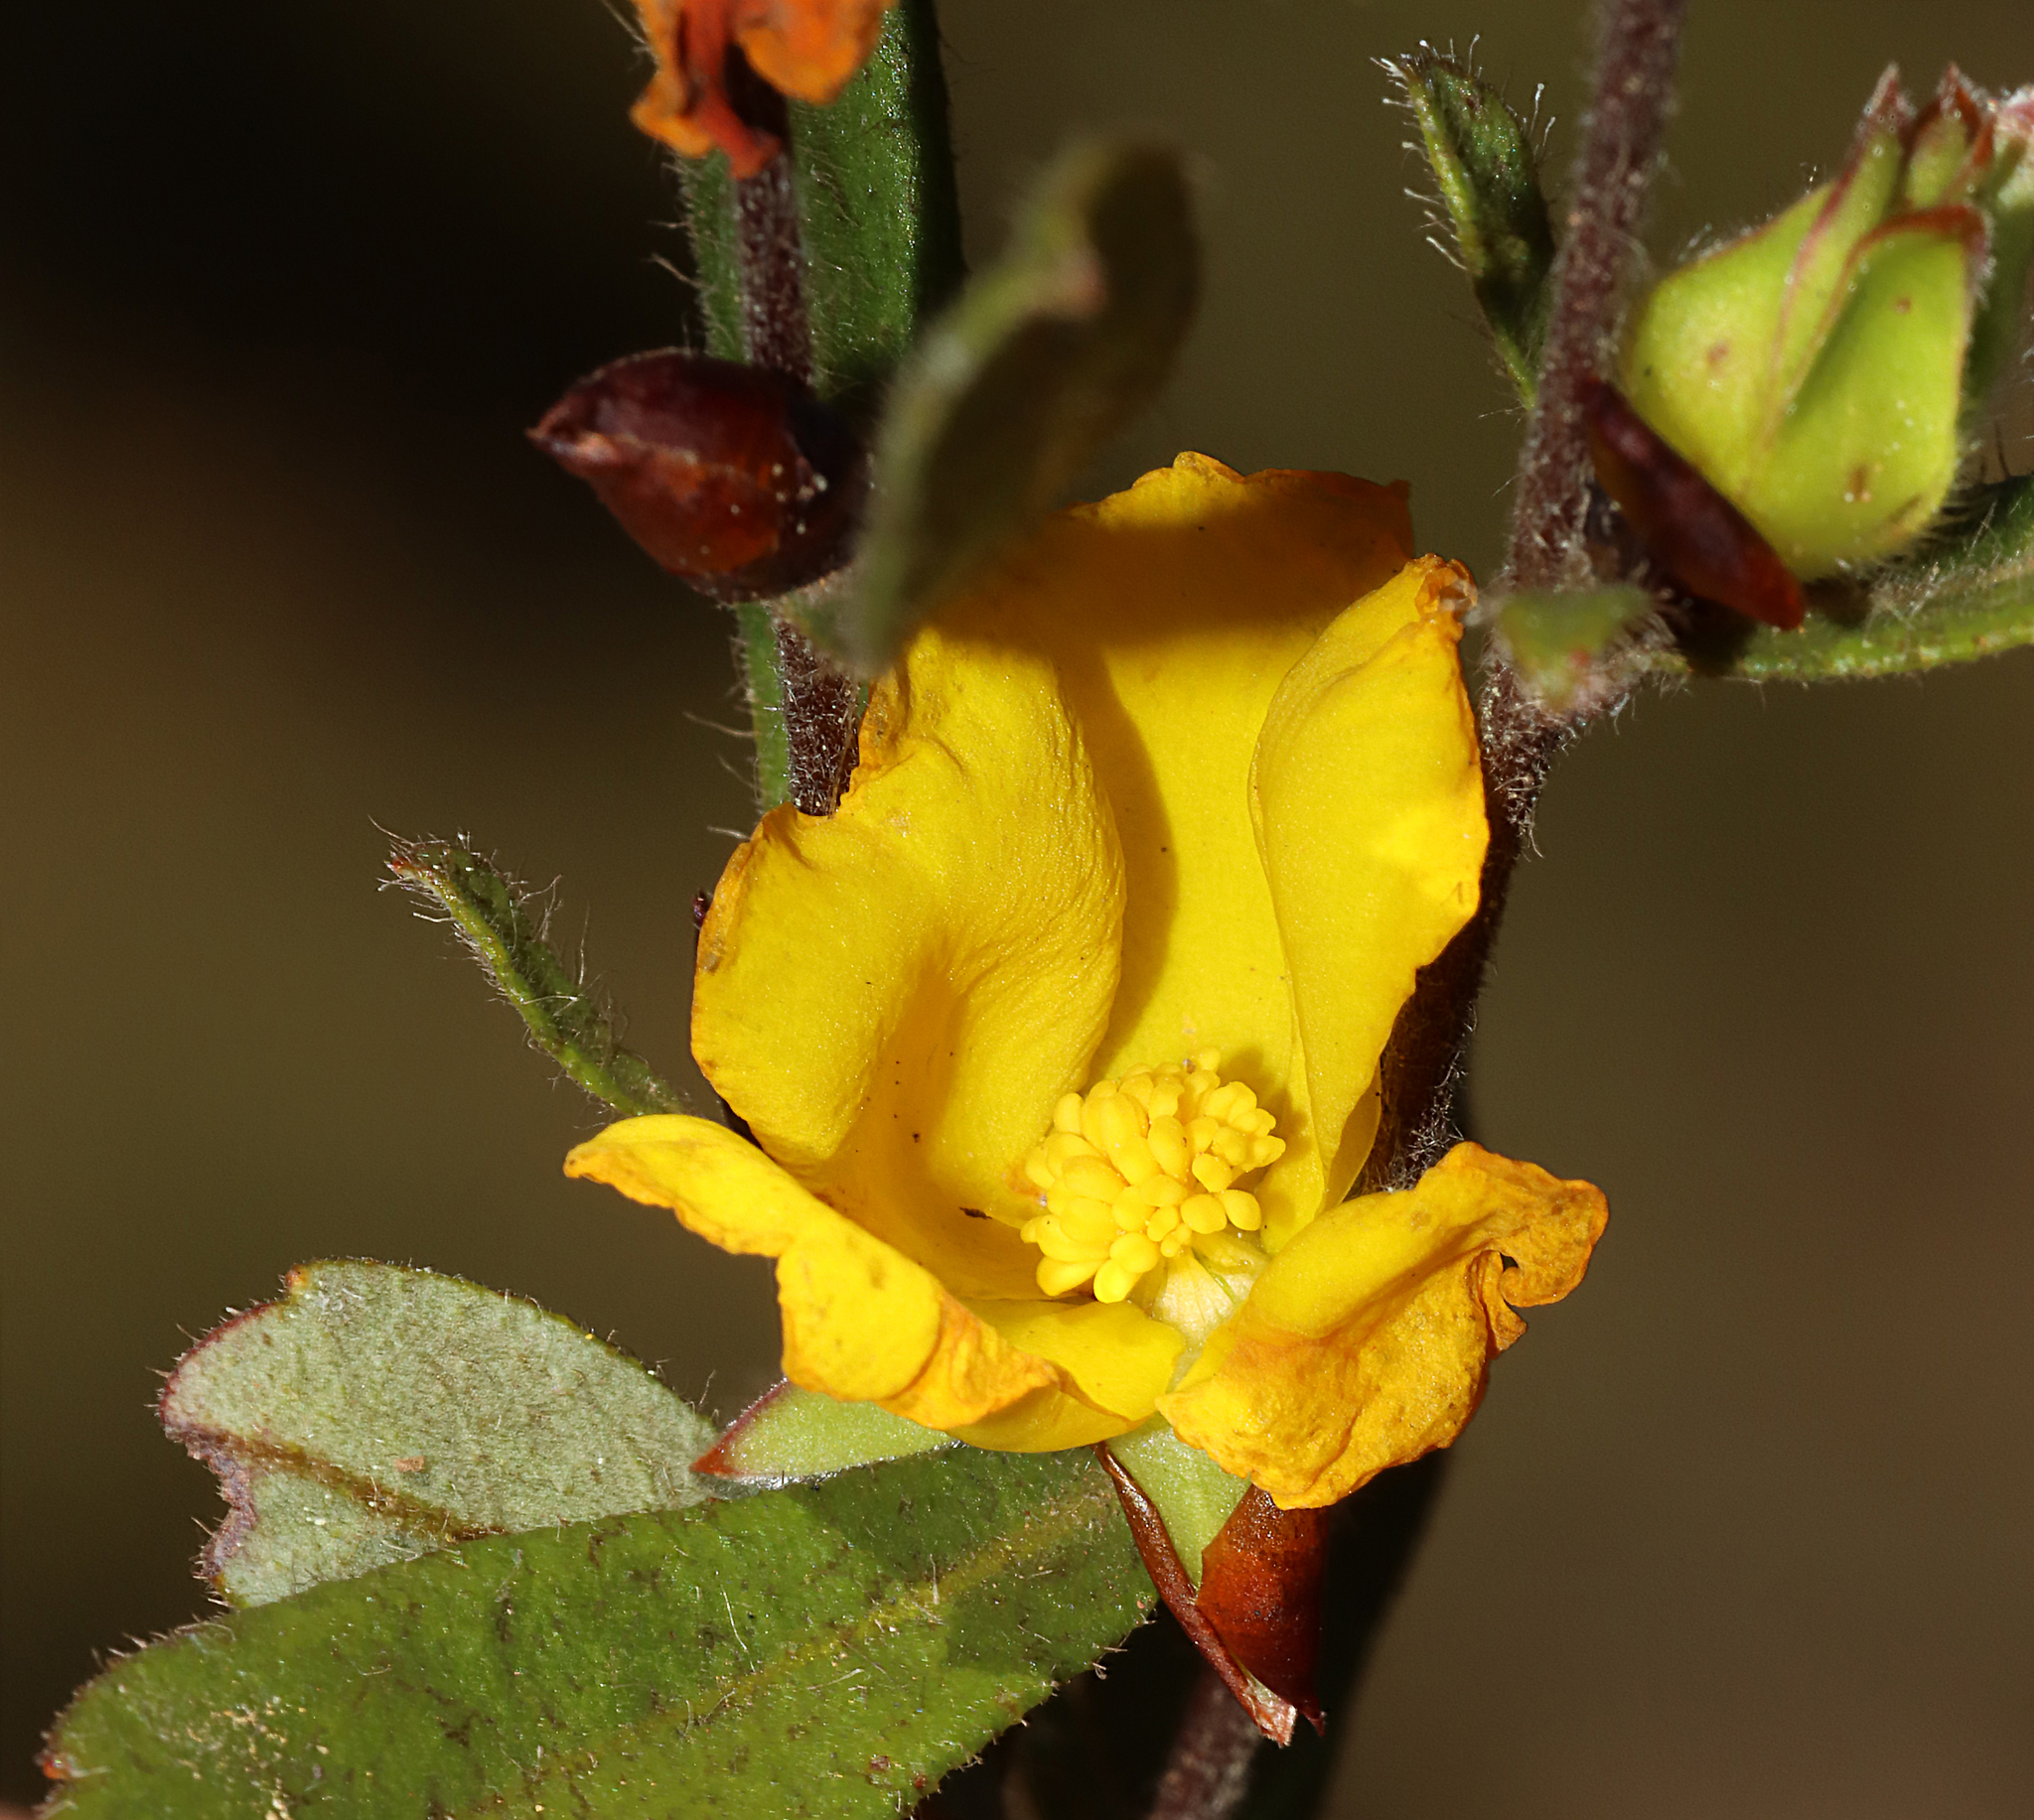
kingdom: Plantae
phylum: Tracheophyta
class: Magnoliopsida
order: Dilleniales
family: Dilleniaceae
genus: Hibbertia
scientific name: Hibbertia ovata
